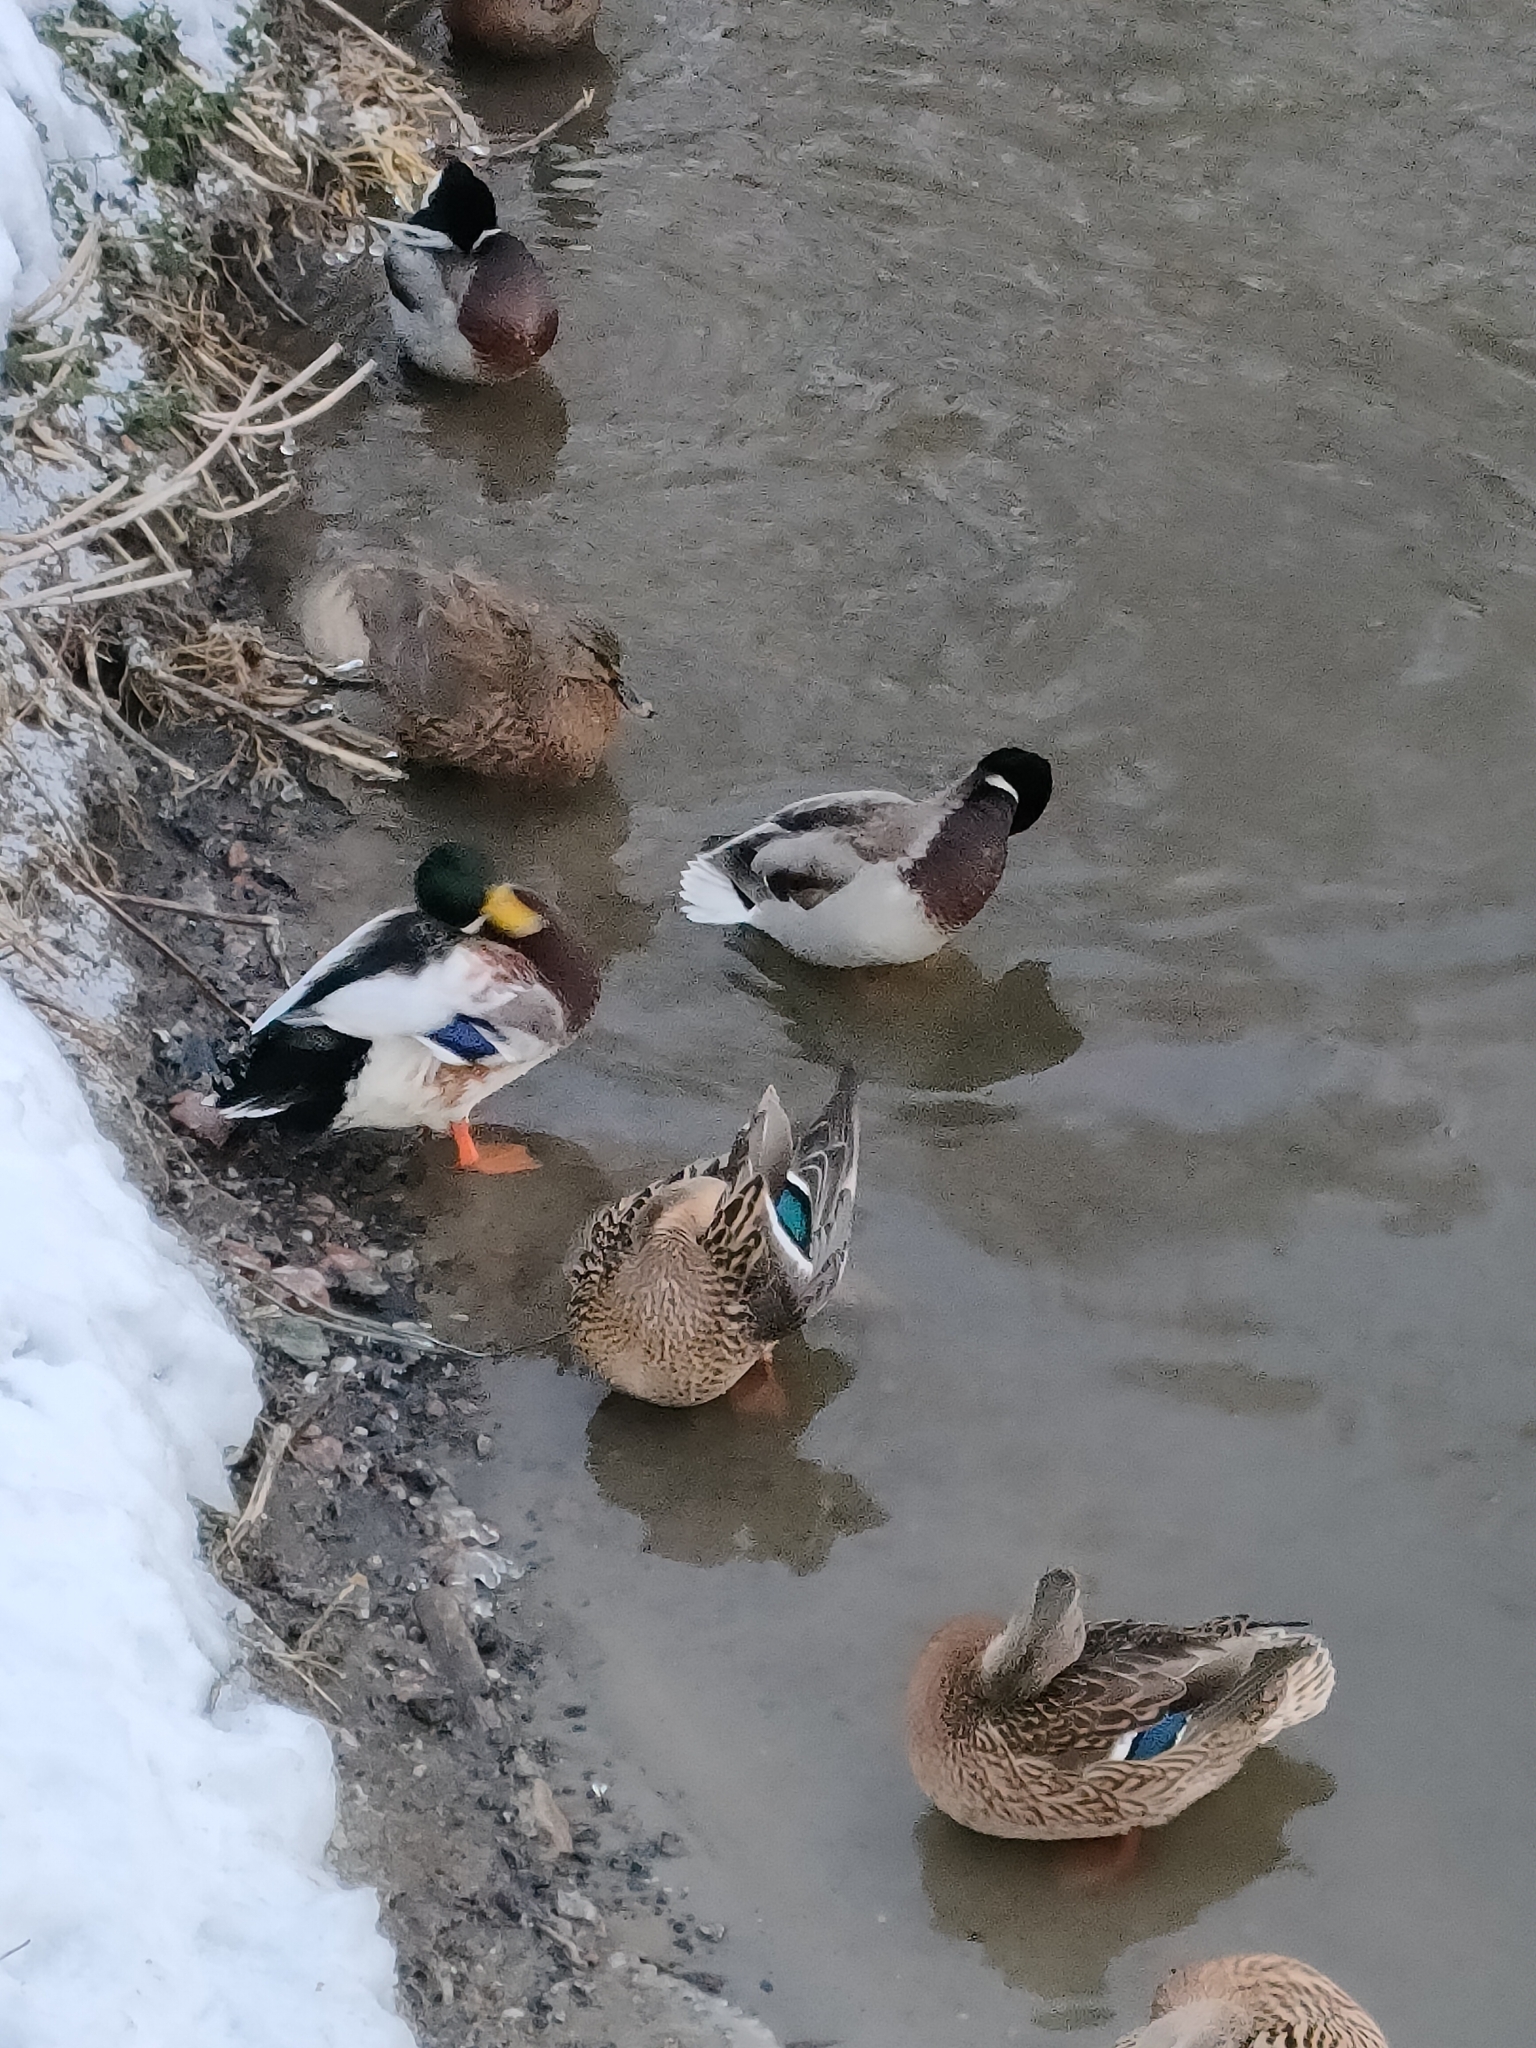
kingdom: Animalia
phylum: Chordata
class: Aves
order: Anseriformes
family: Anatidae
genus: Anas
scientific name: Anas platyrhynchos
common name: Mallard
